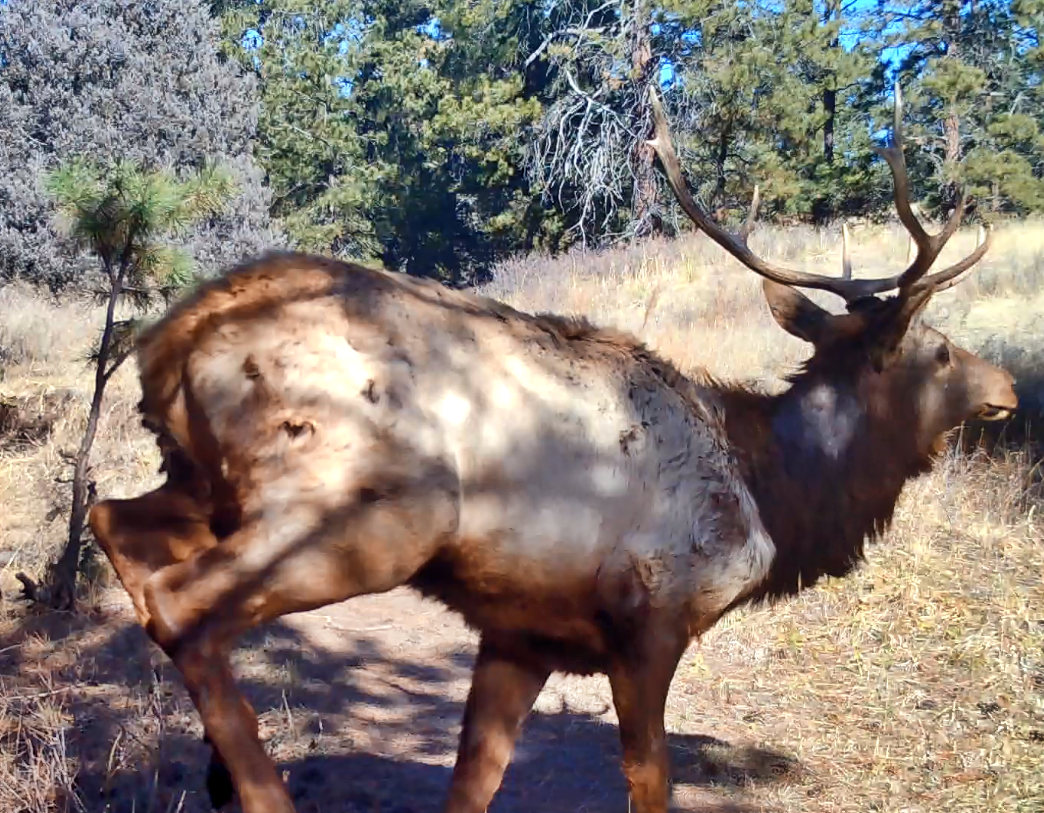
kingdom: Animalia
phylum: Chordata
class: Mammalia
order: Artiodactyla
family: Cervidae
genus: Cervus
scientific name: Cervus elaphus
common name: Red deer
